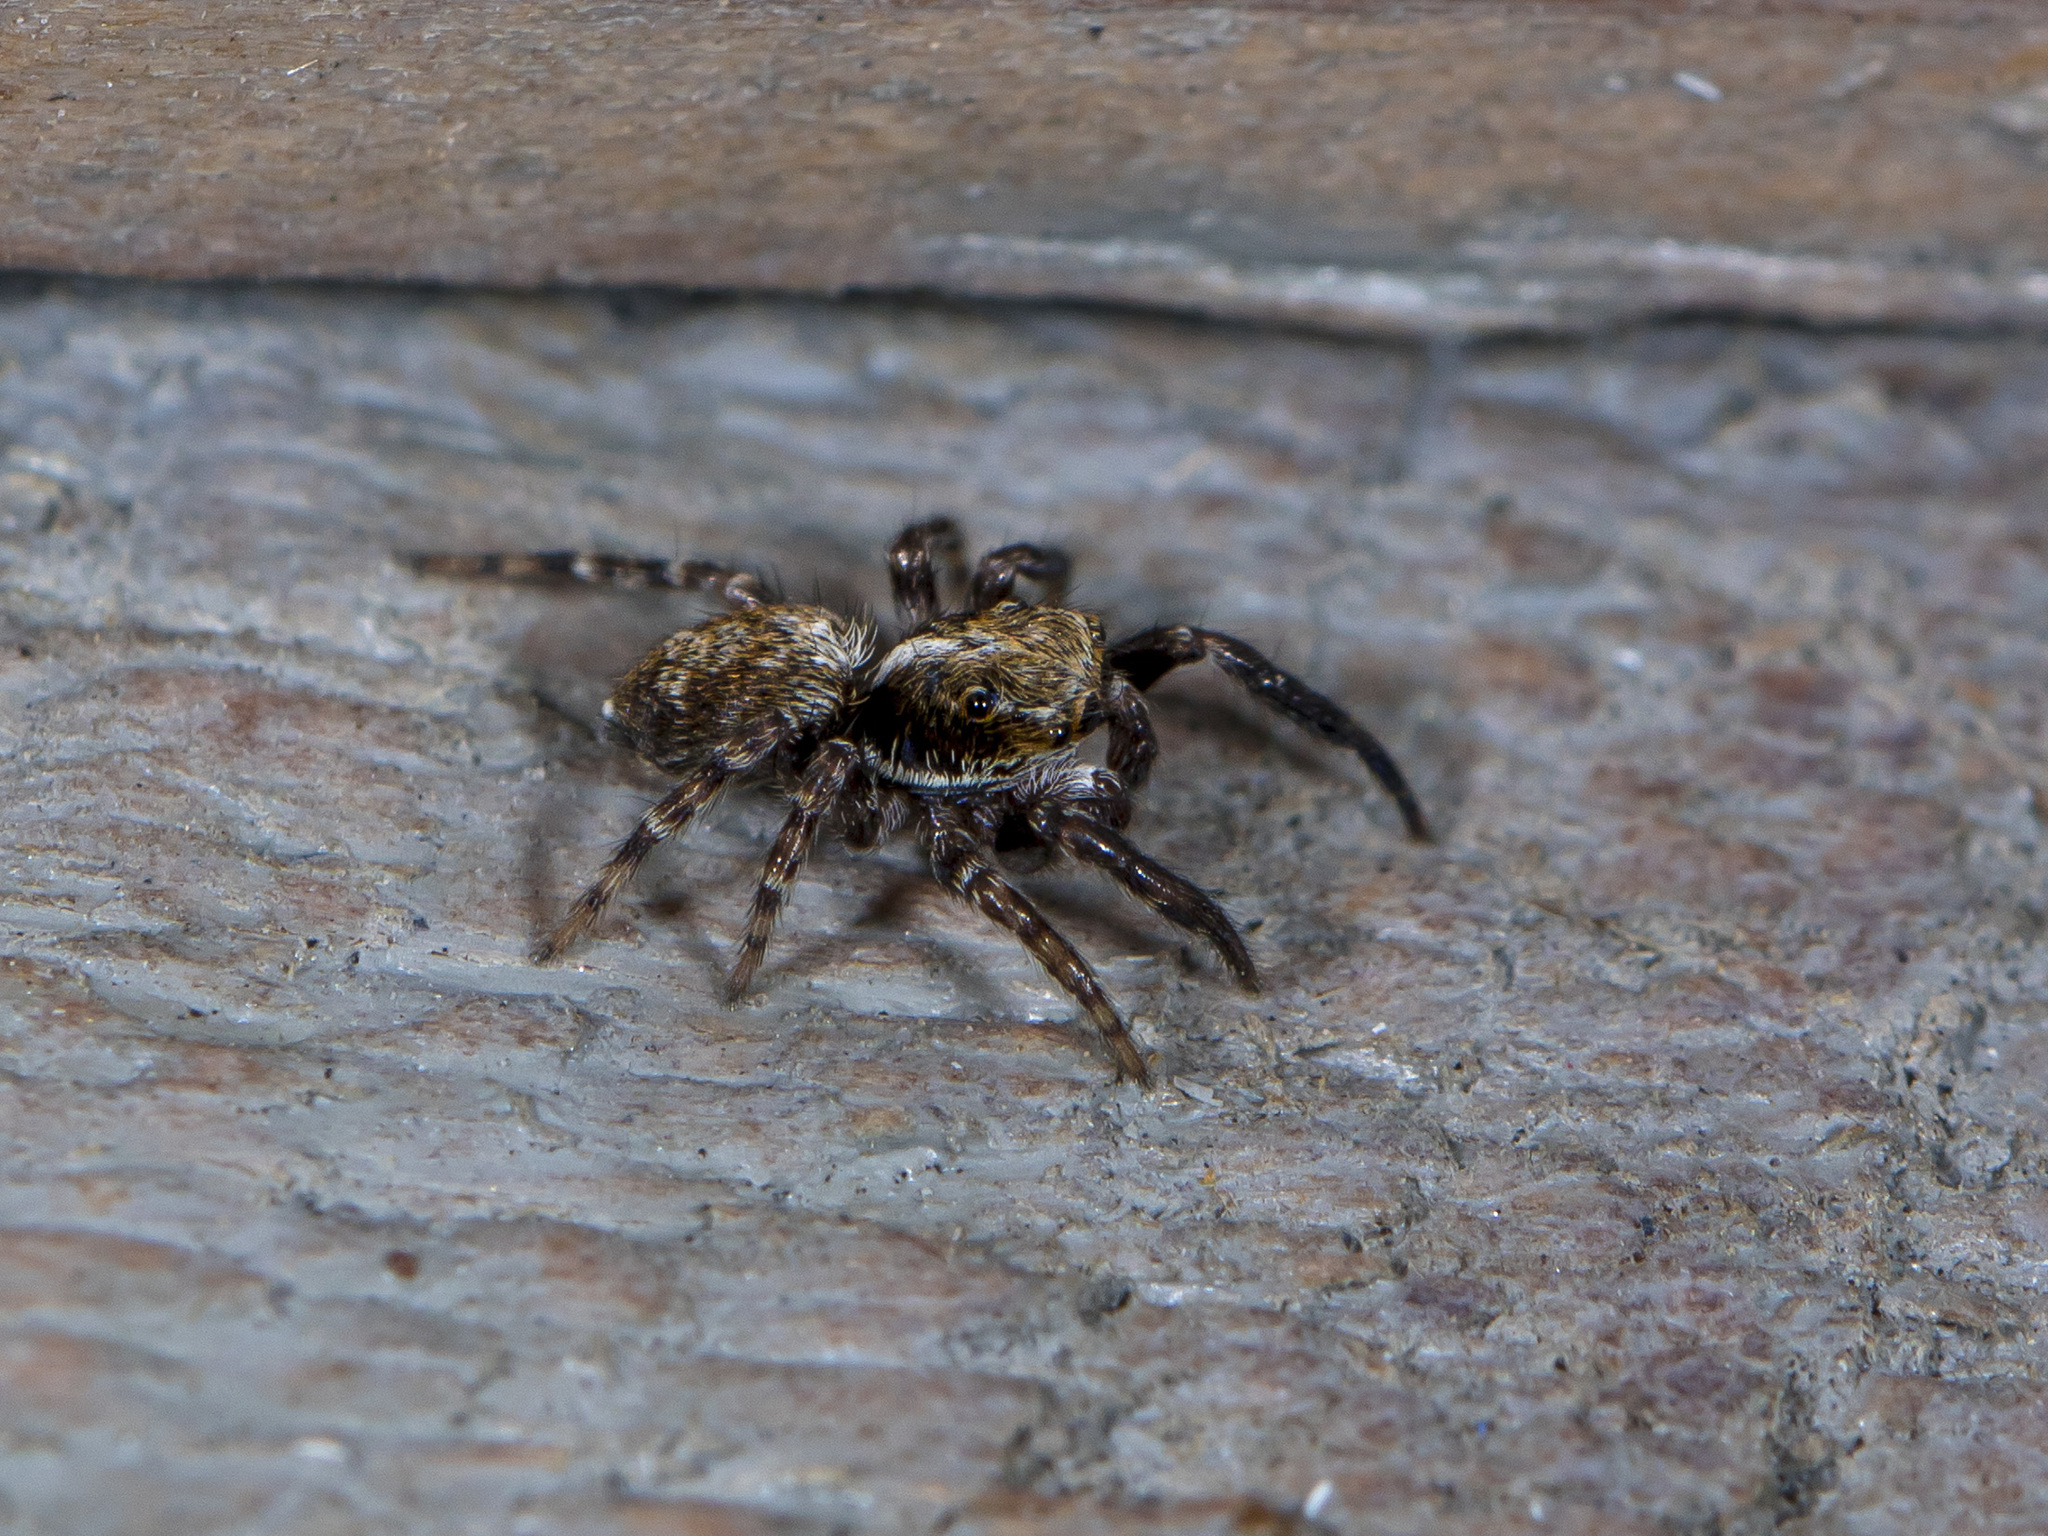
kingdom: Animalia
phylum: Arthropoda
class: Arachnida
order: Araneae
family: Salticidae
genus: Pseudeuophrys
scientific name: Pseudeuophrys obsoleta
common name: Whelk-shell jumper
